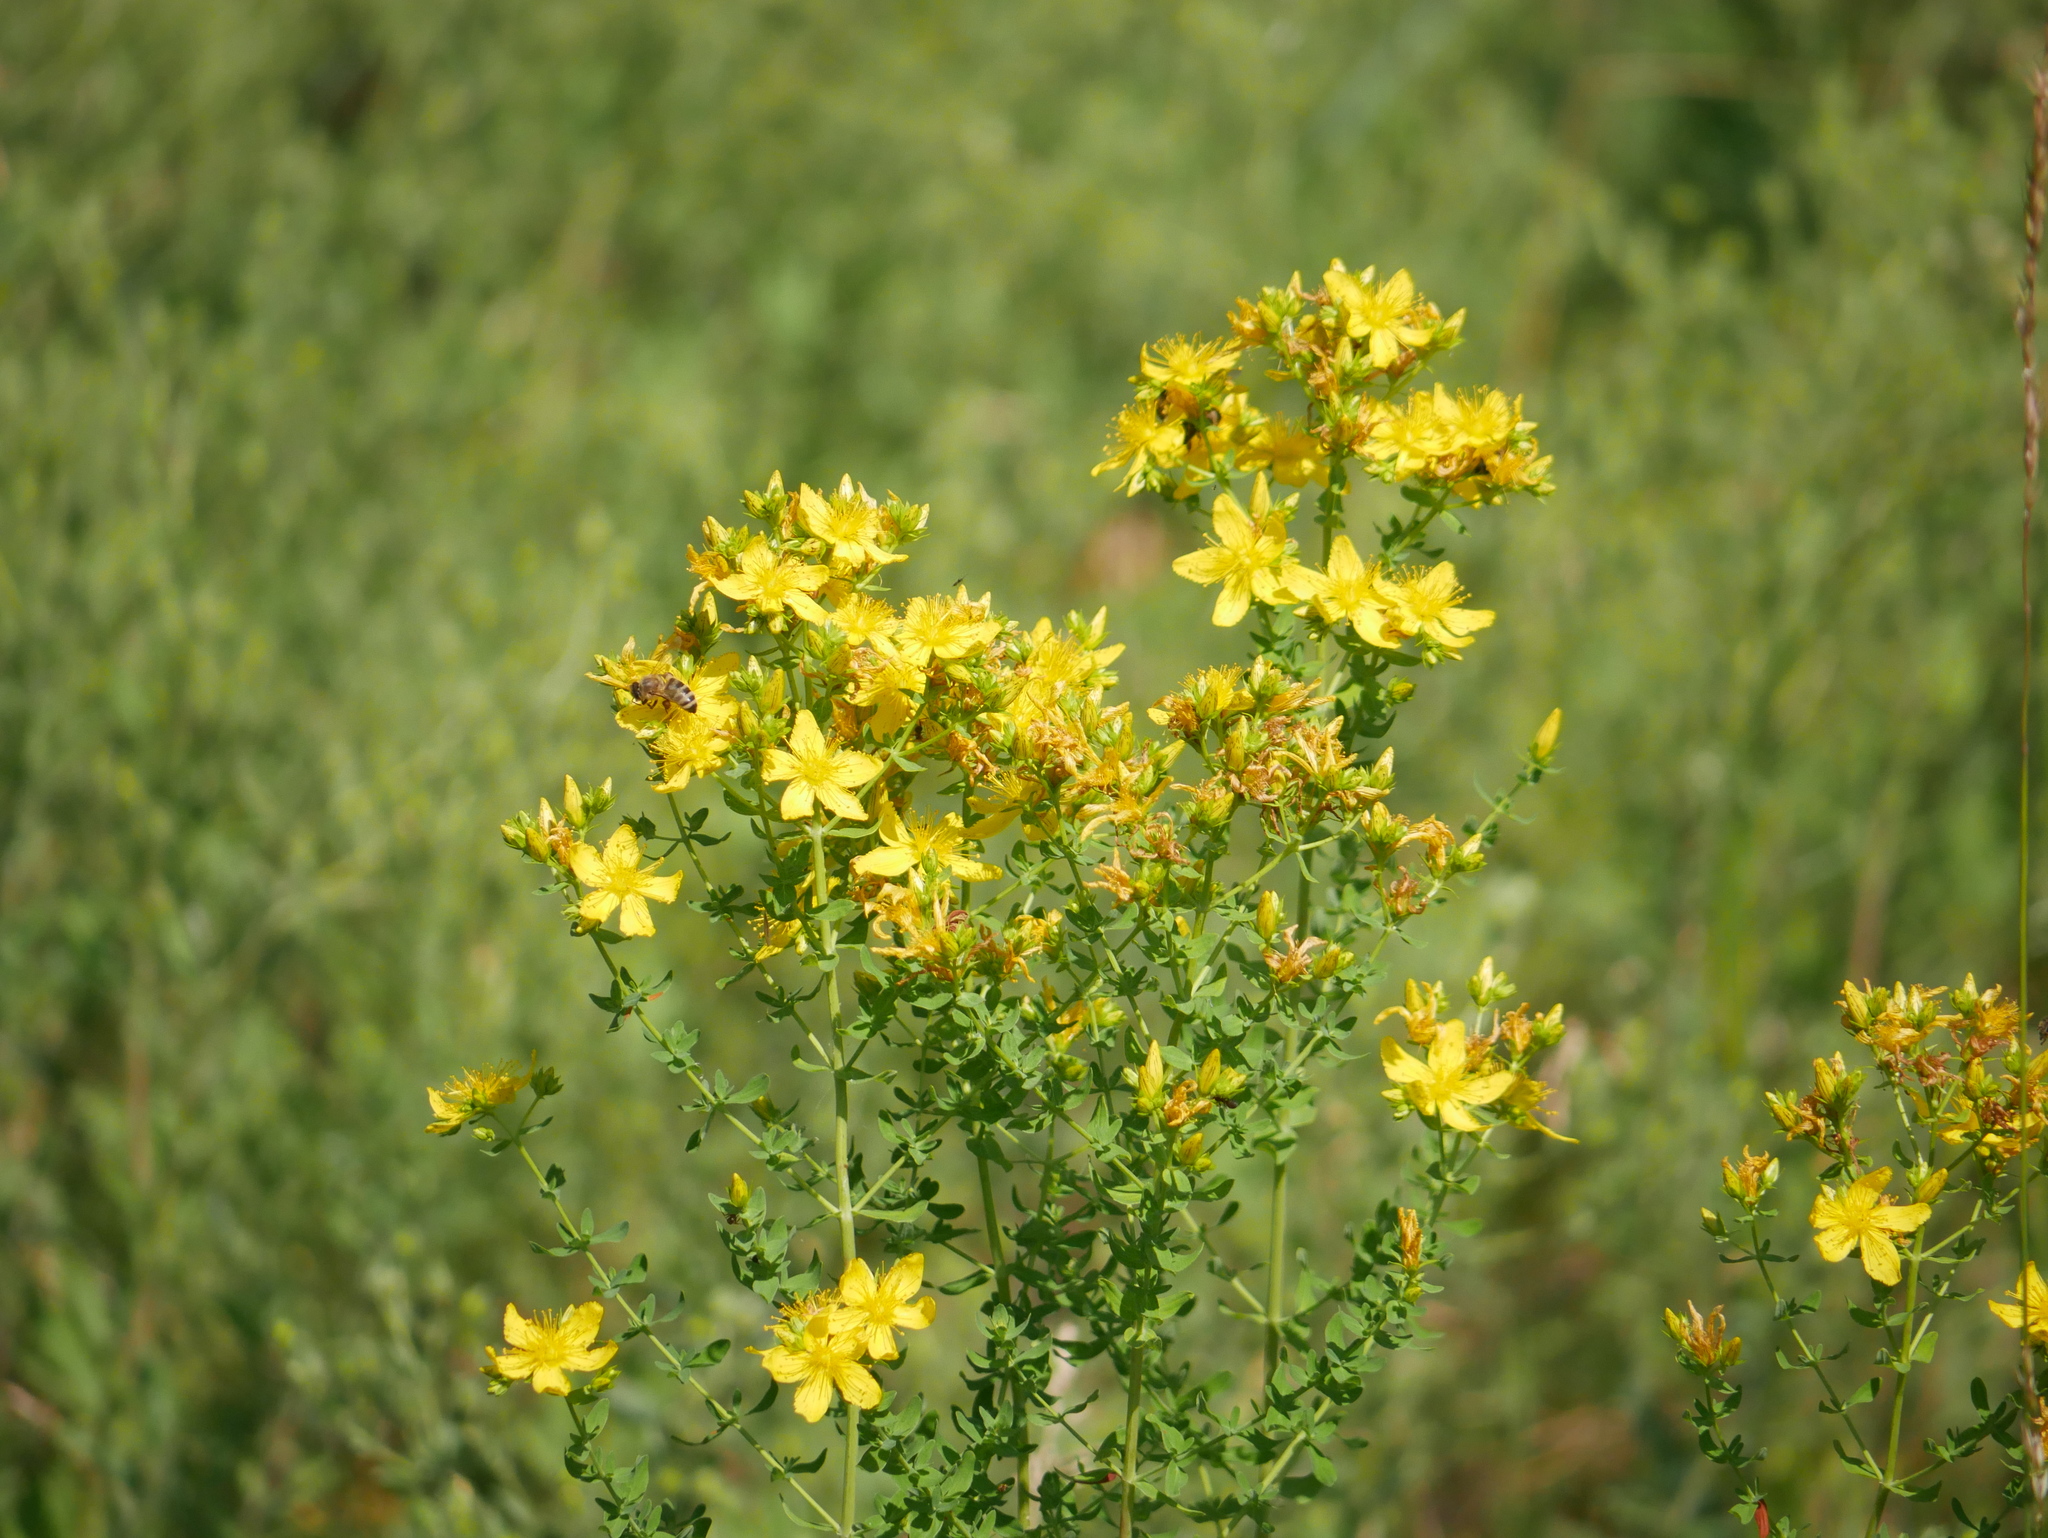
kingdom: Plantae
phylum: Tracheophyta
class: Magnoliopsida
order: Malpighiales
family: Hypericaceae
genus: Hypericum
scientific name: Hypericum perforatum
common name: Common st. johnswort
